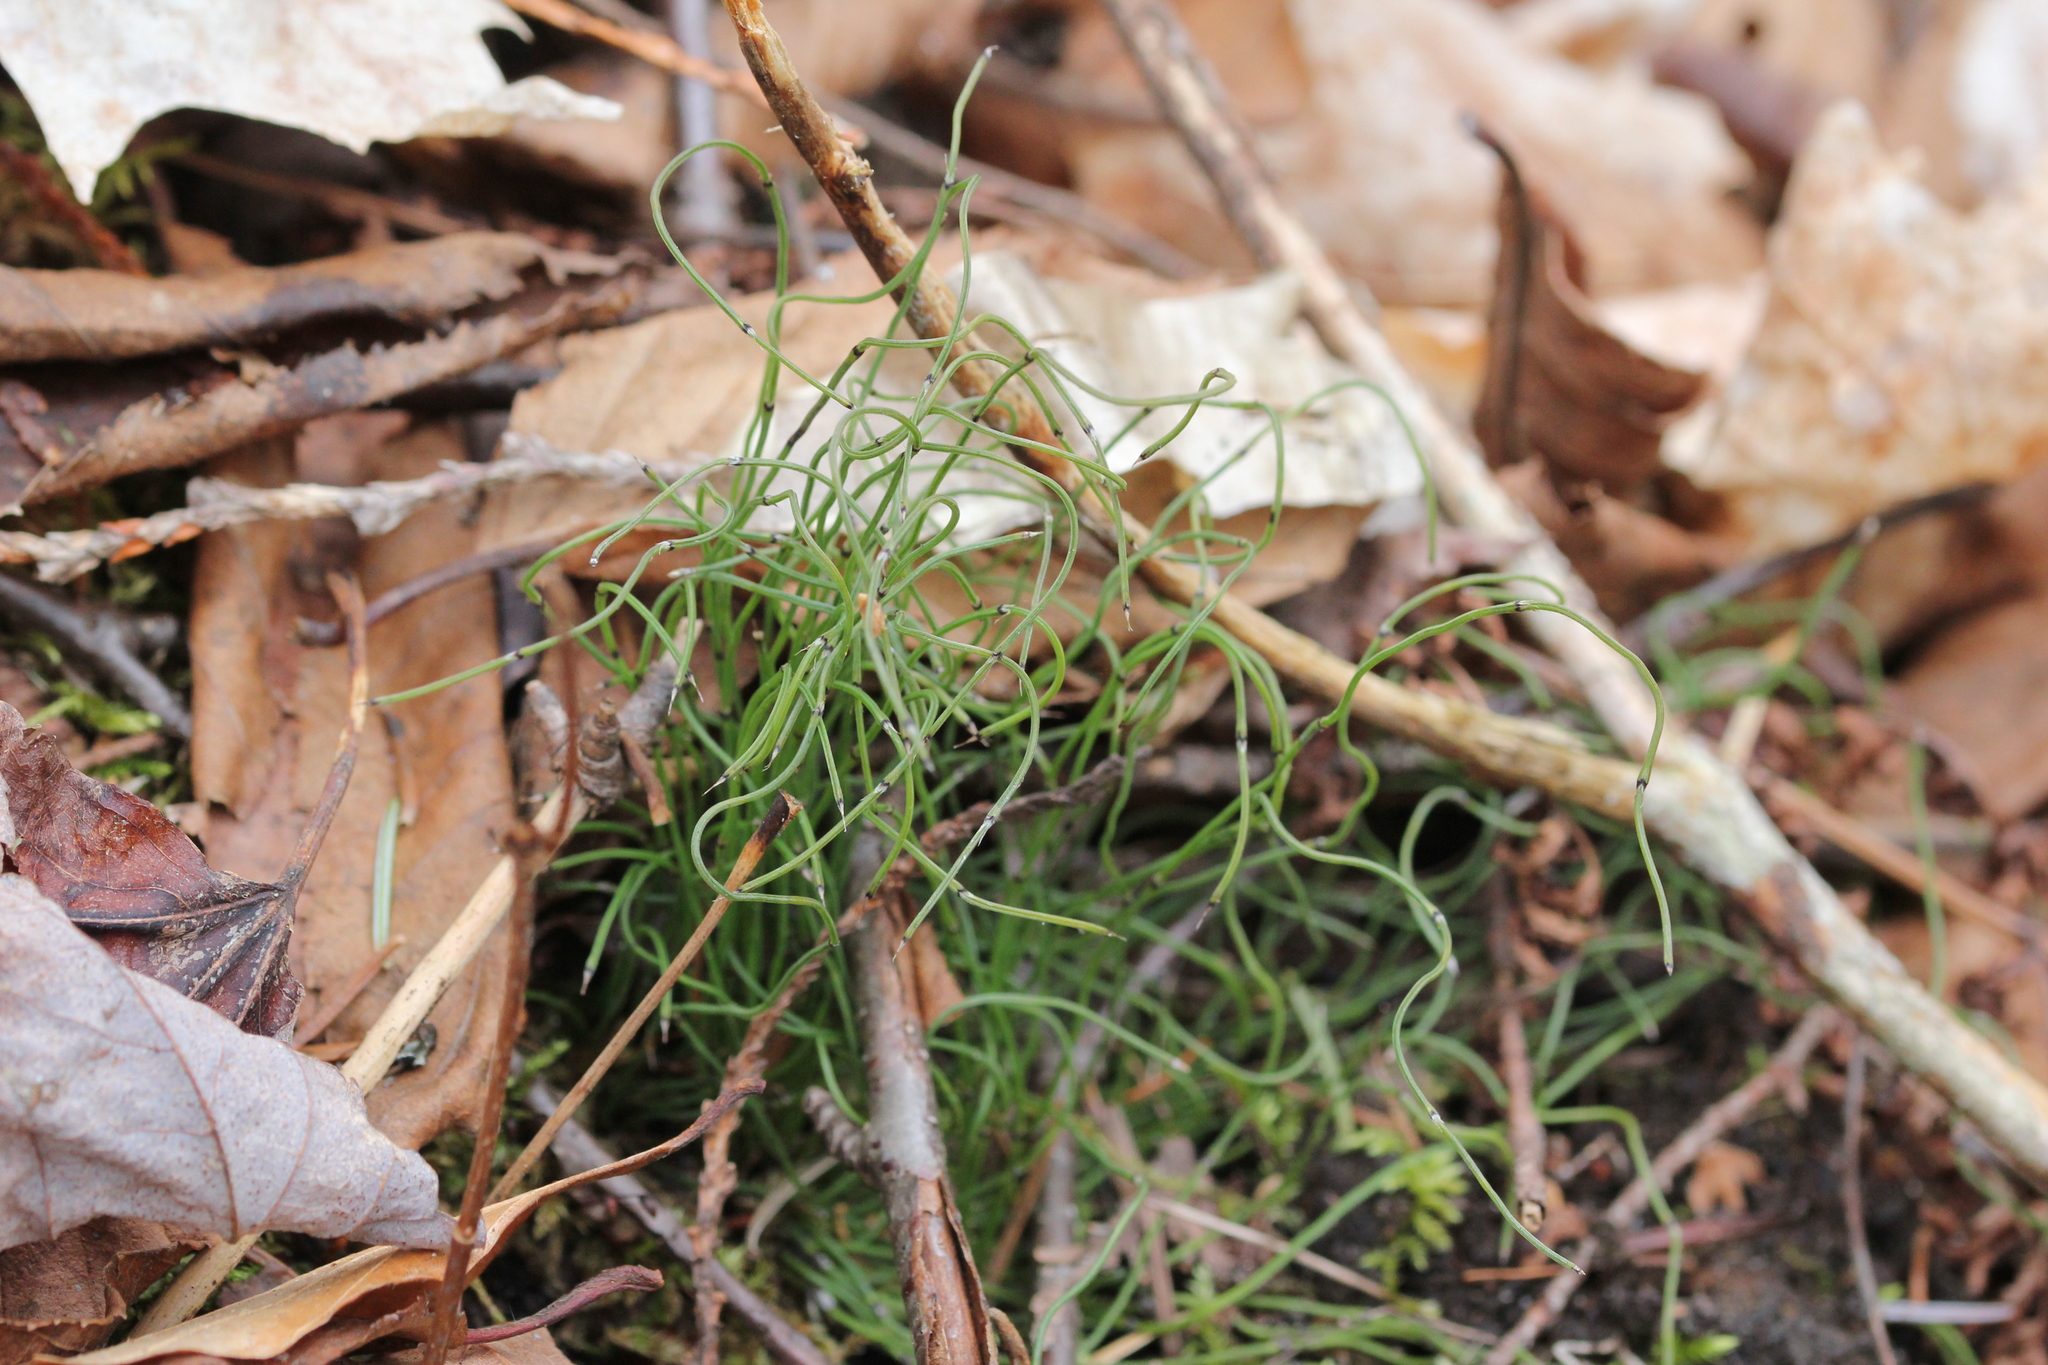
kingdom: Plantae
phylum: Tracheophyta
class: Polypodiopsida
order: Equisetales
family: Equisetaceae
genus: Equisetum
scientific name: Equisetum scirpoides
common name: Delicate horsetail
